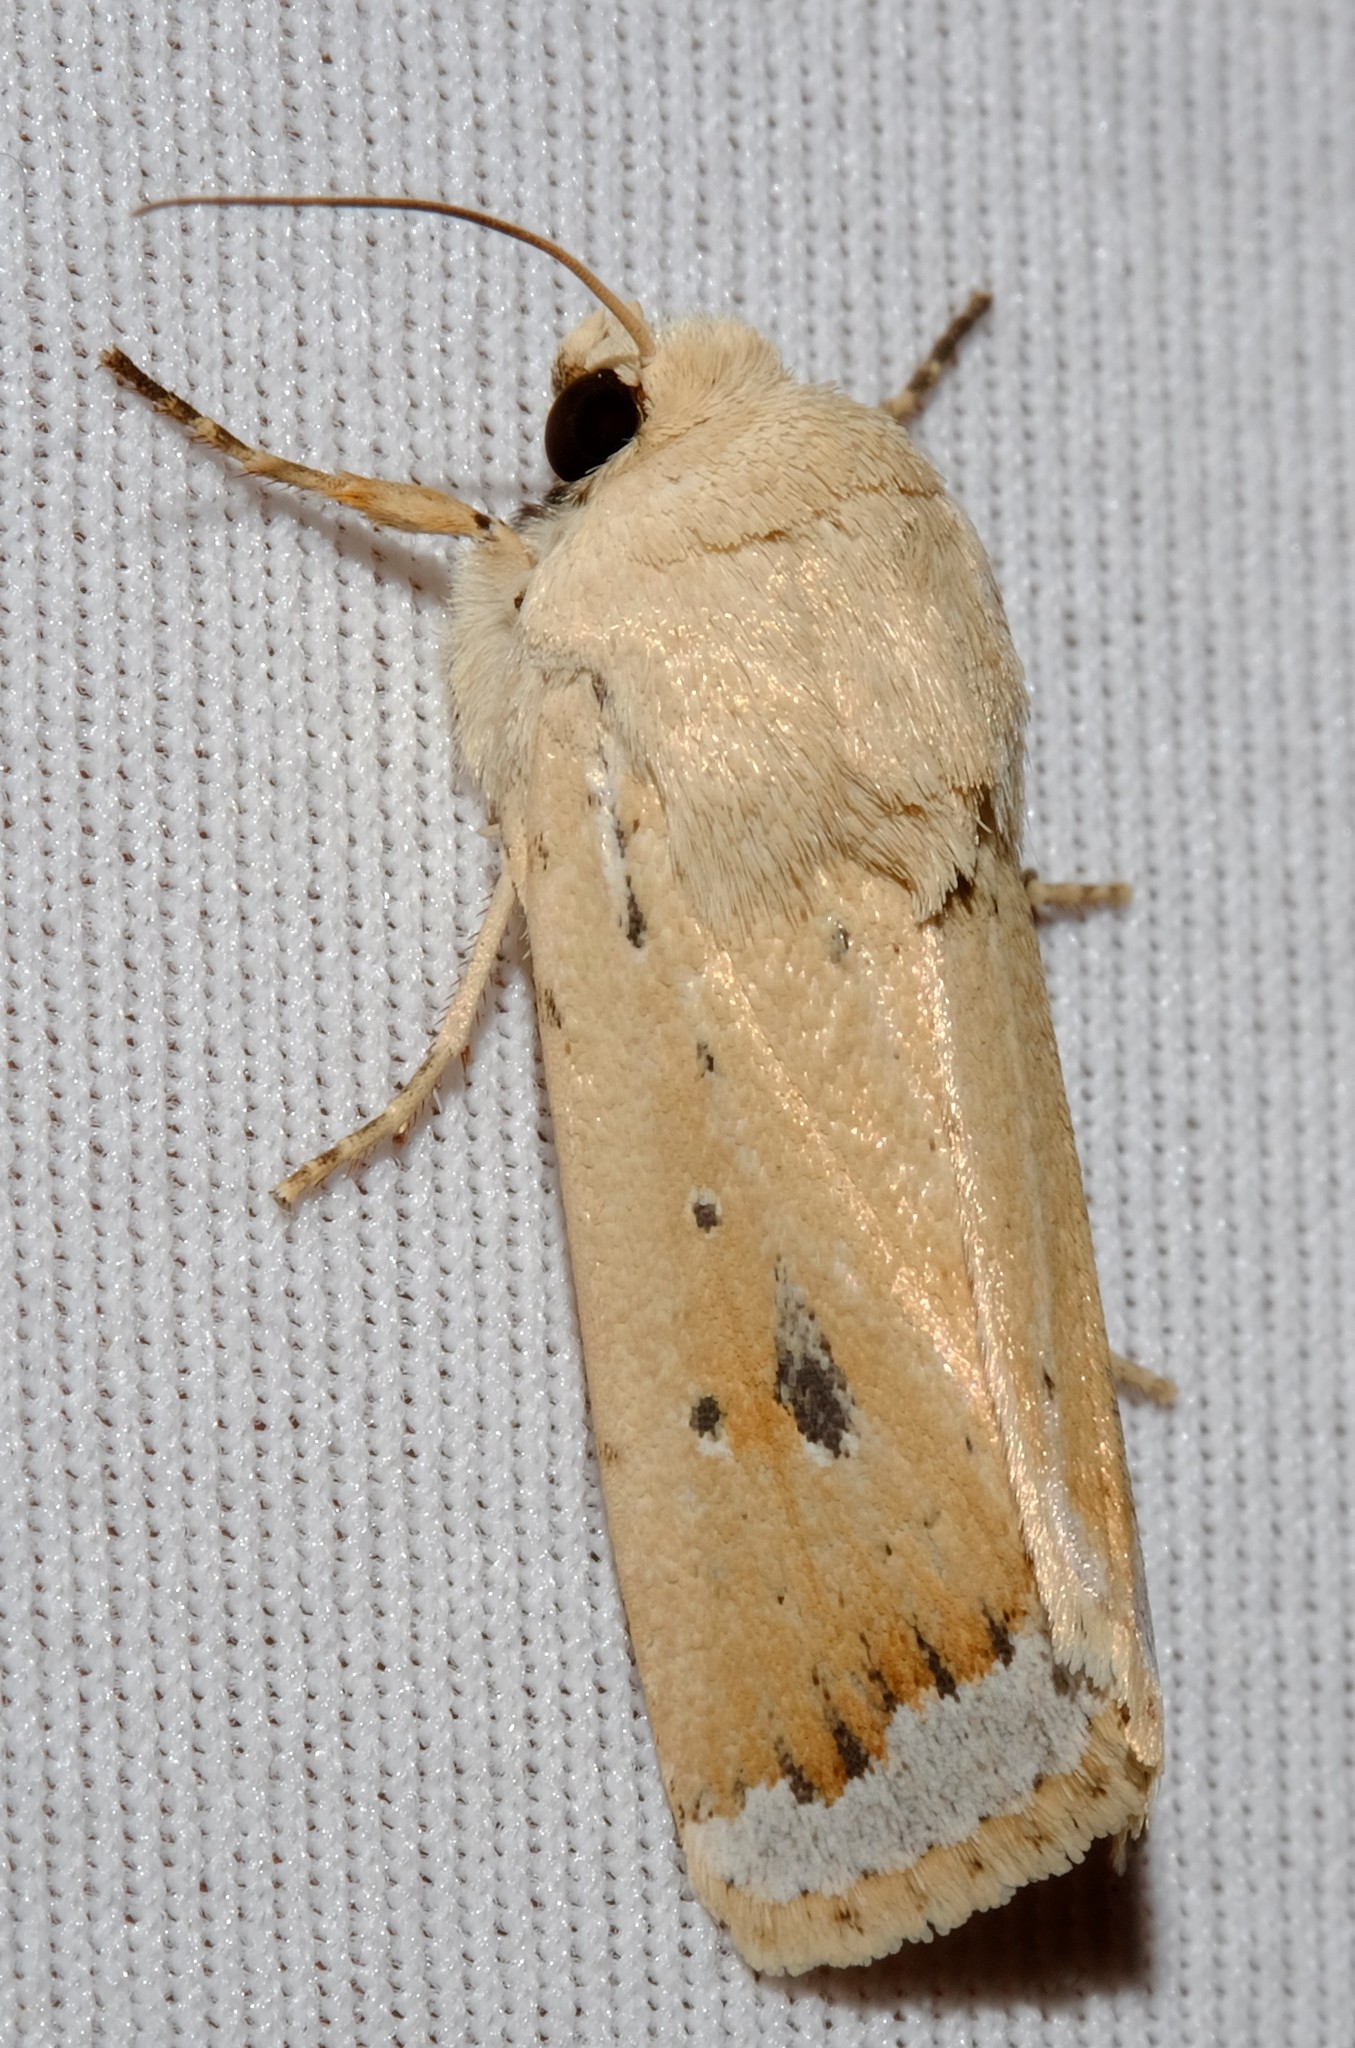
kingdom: Animalia
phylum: Arthropoda
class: Insecta
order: Lepidoptera
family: Noctuidae
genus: Proteuxoa
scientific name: Proteuxoa cyanoloma
